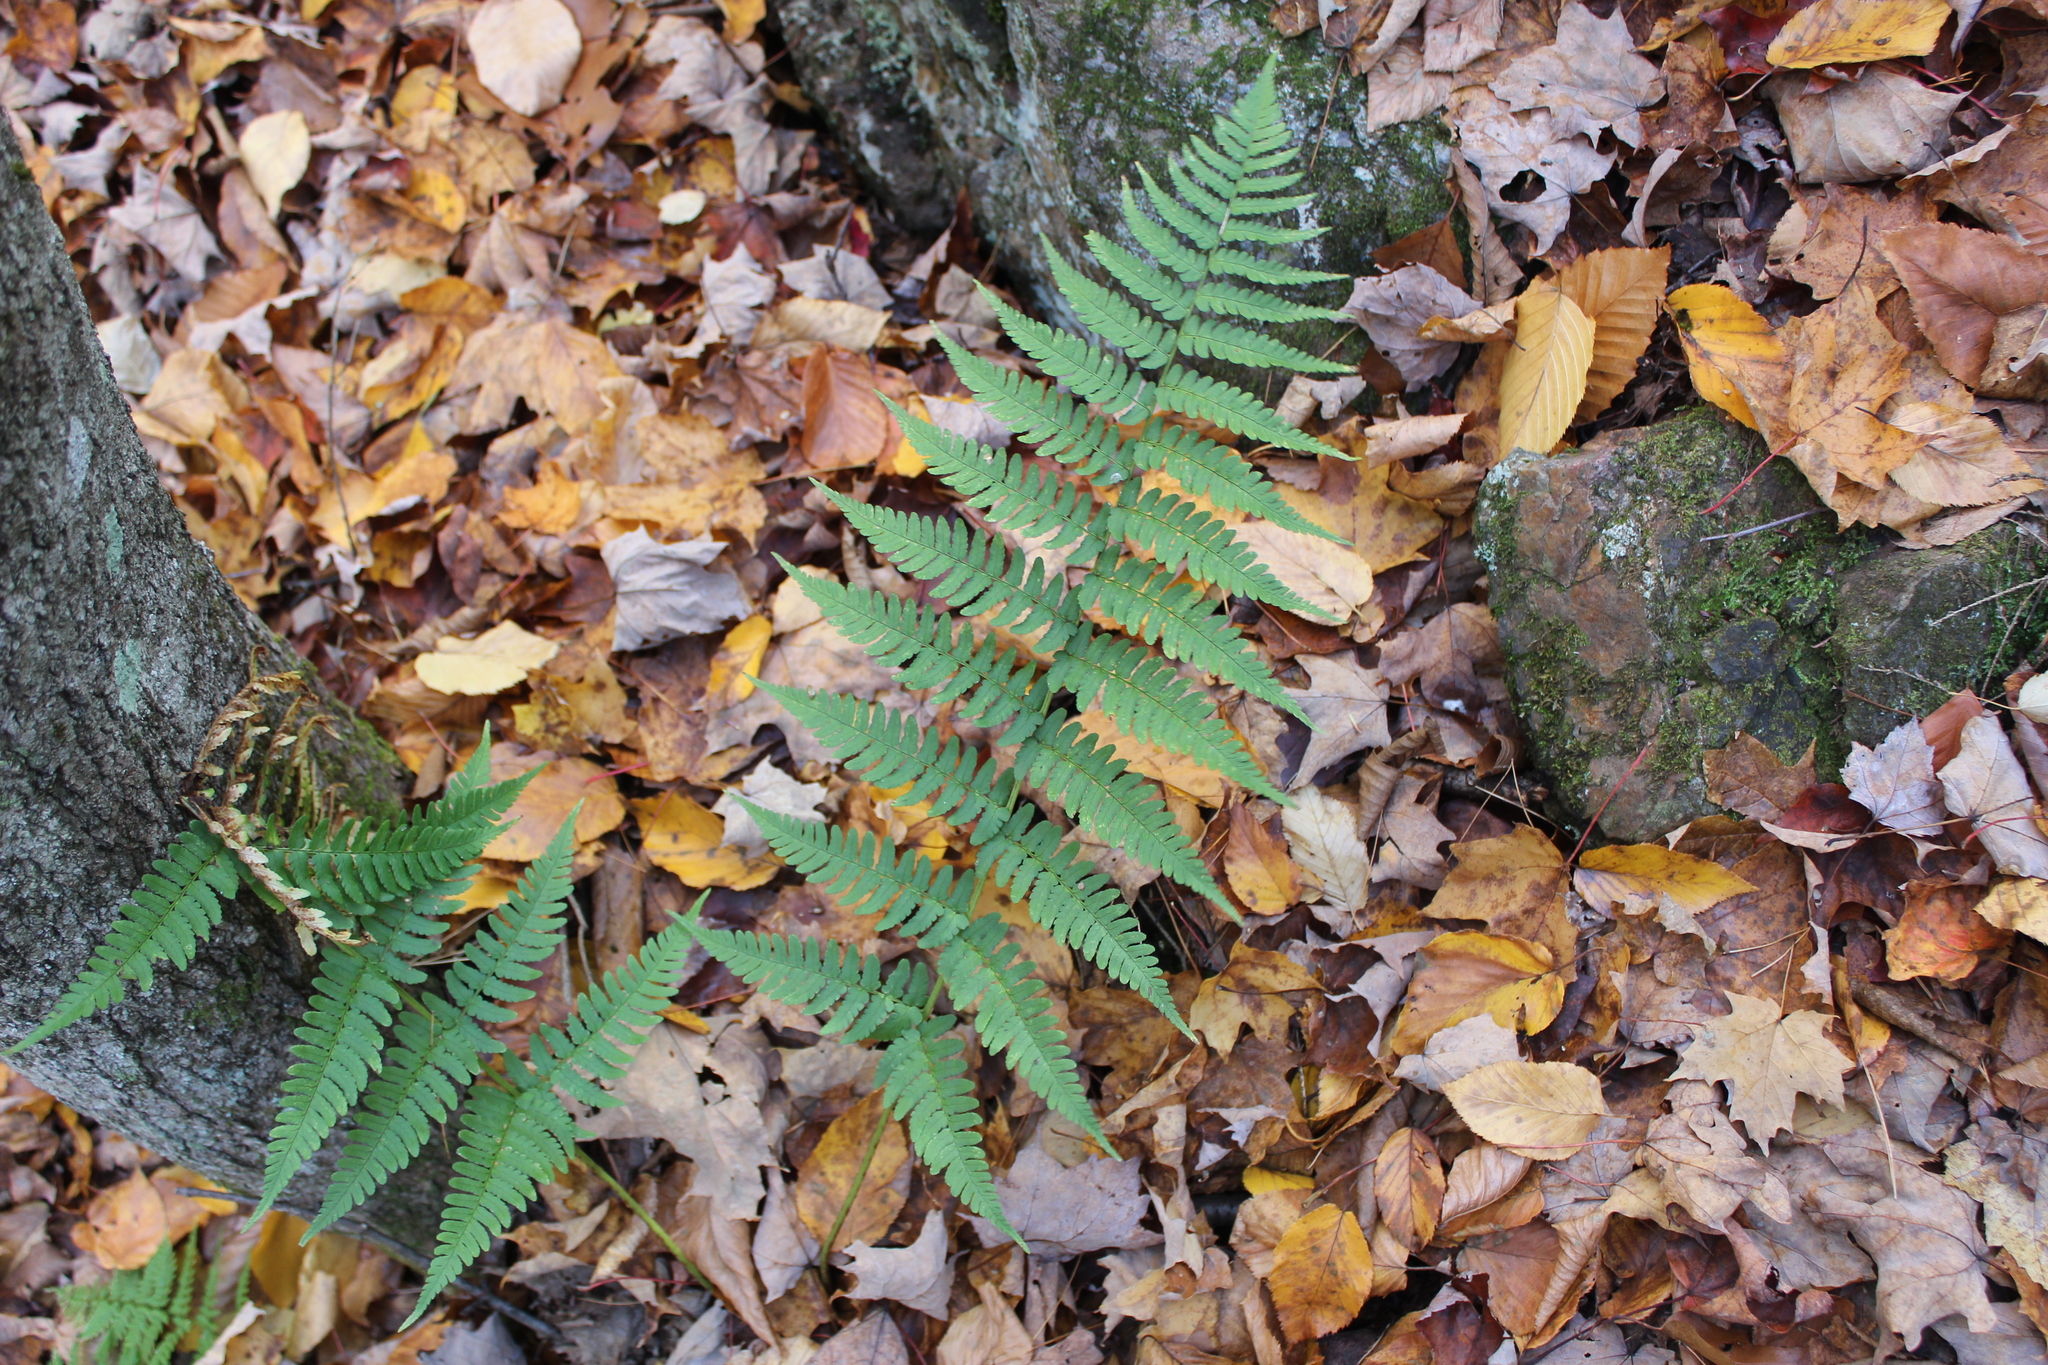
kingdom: Plantae
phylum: Tracheophyta
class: Polypodiopsida
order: Polypodiales
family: Dryopteridaceae
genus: Dryopteris
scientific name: Dryopteris marginalis
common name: Marginal wood fern
